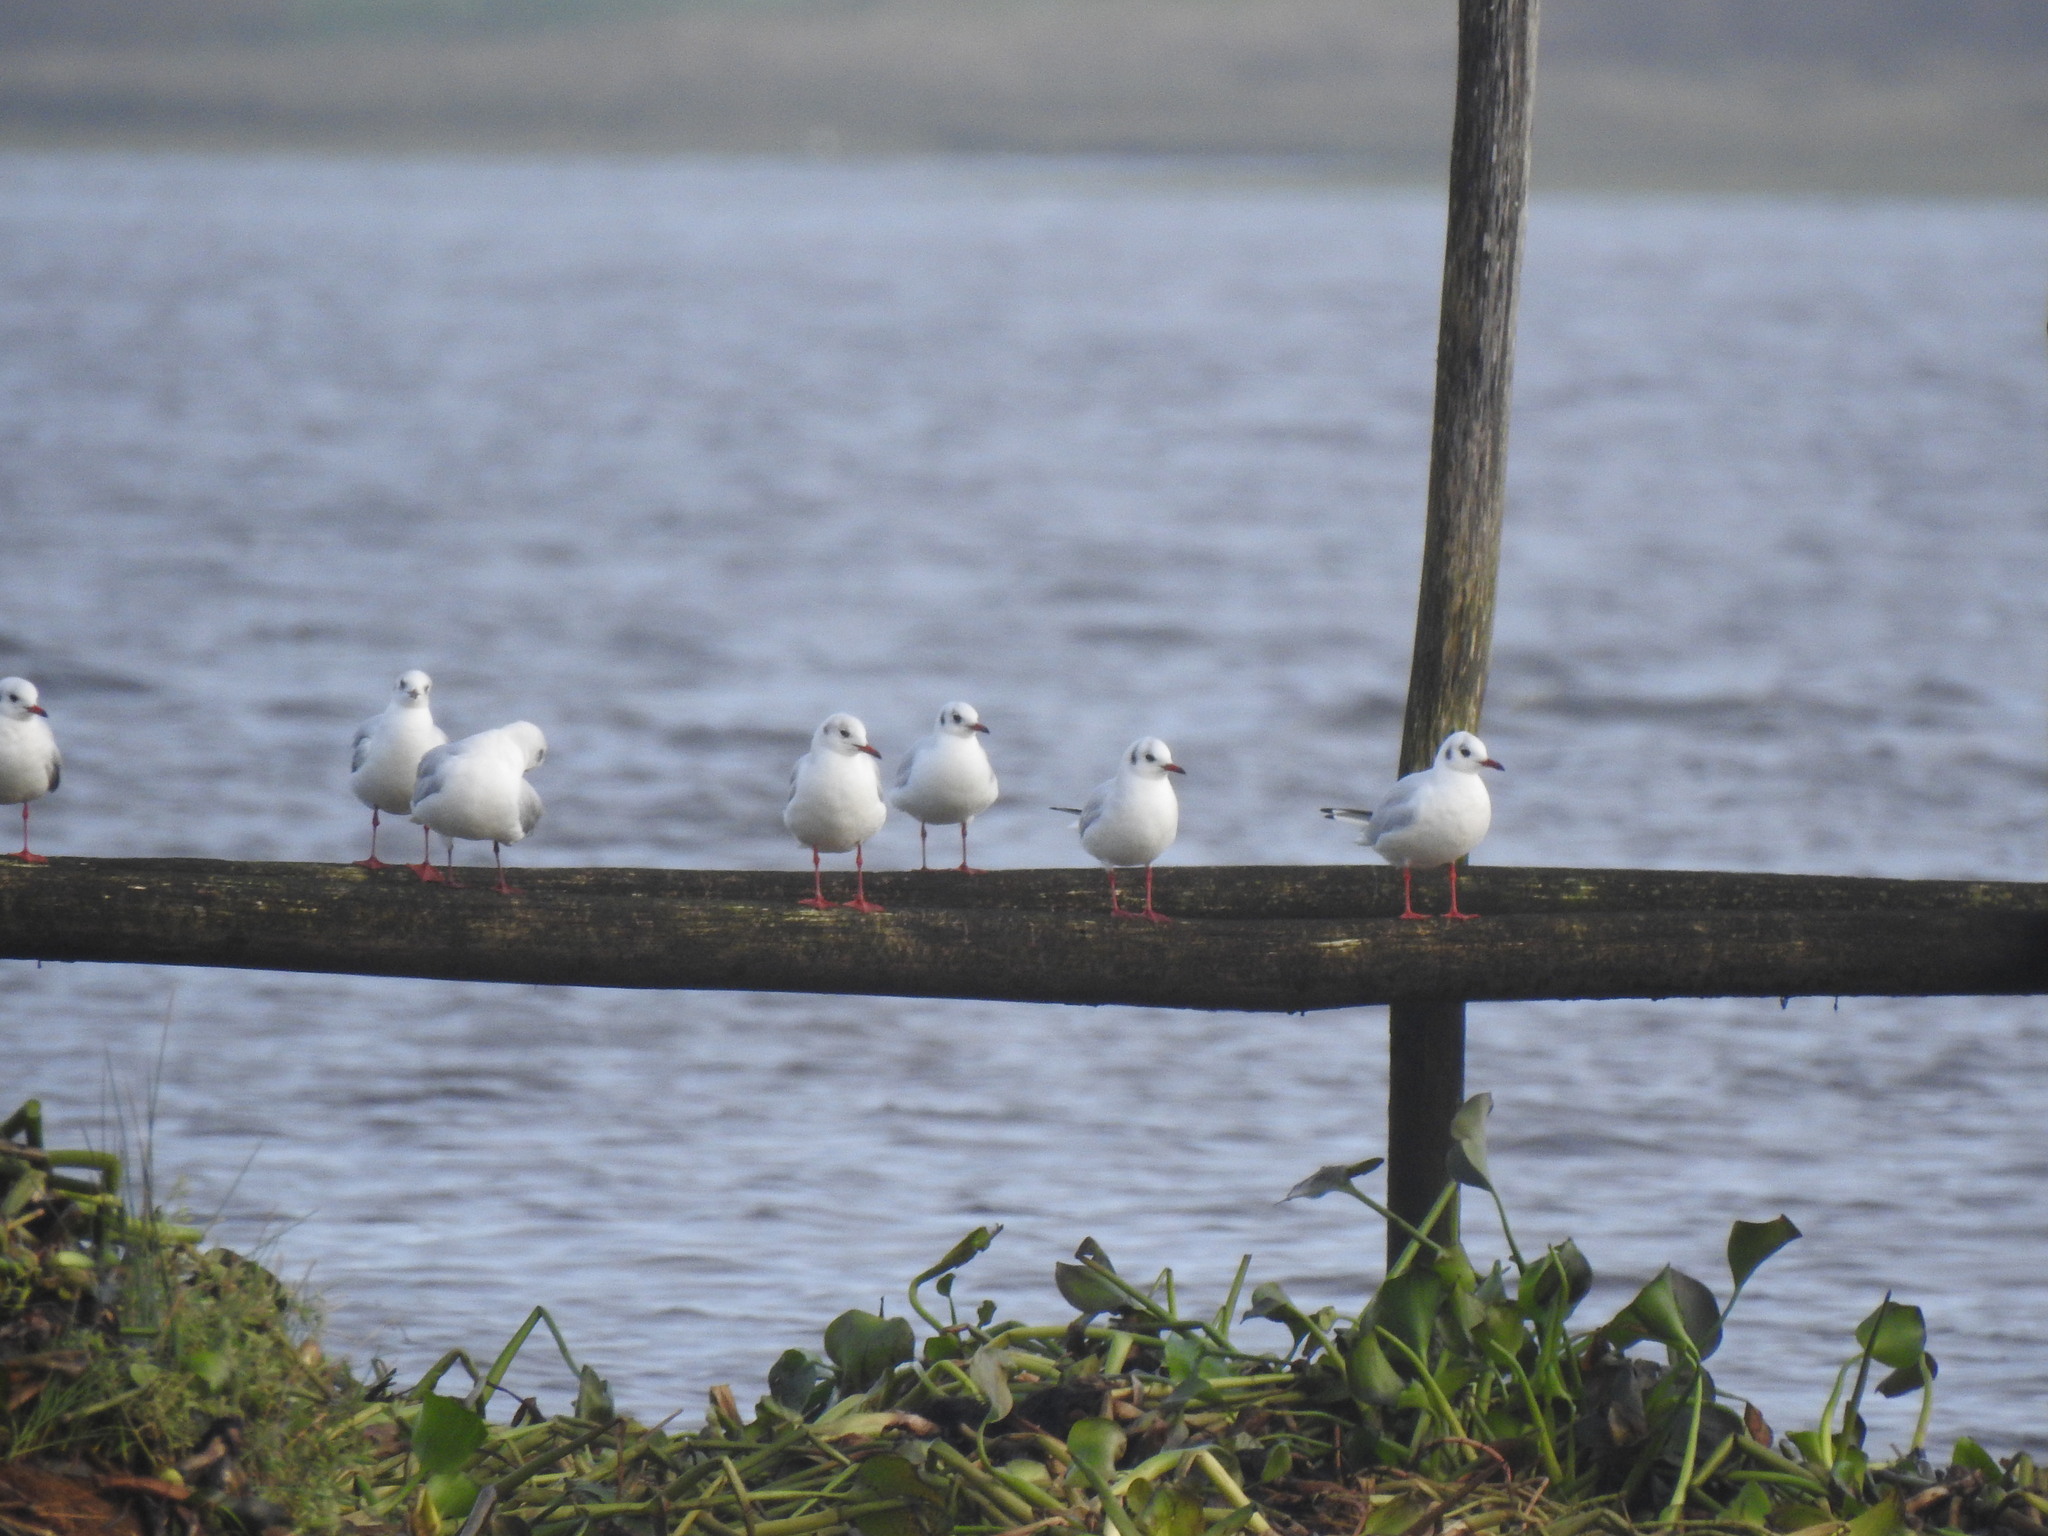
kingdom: Animalia
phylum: Chordata
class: Aves
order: Charadriiformes
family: Laridae
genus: Chroicocephalus
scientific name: Chroicocephalus ridibundus
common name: Black-headed gull
